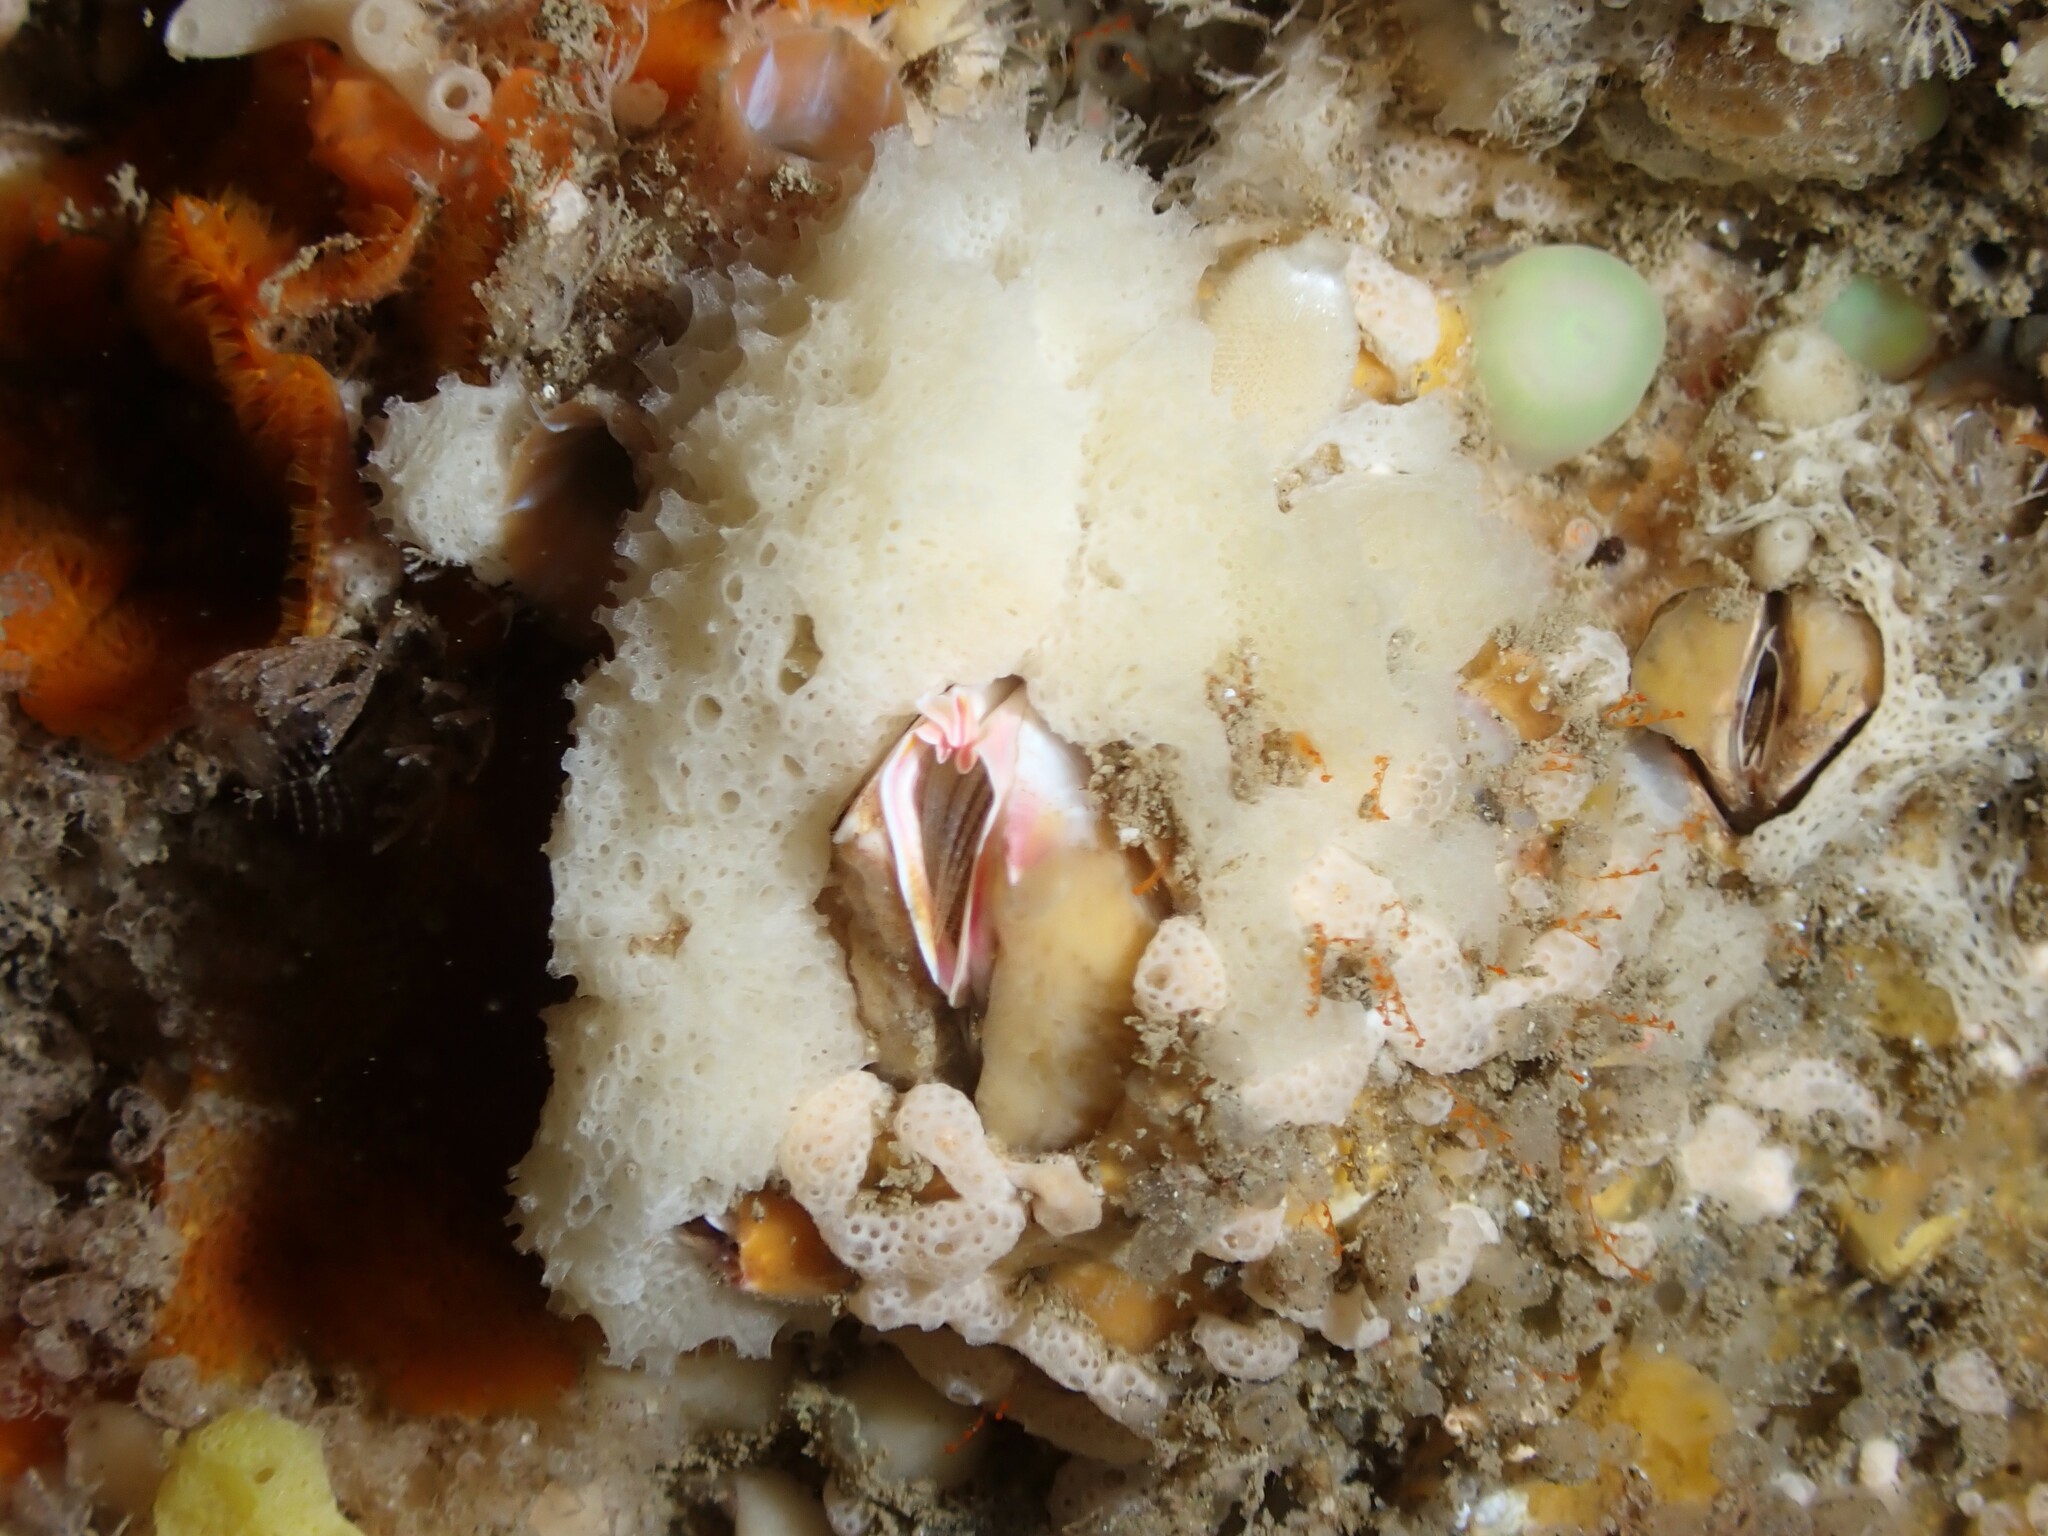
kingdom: Animalia
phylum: Arthropoda
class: Maxillopoda
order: Sessilia
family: Balanidae
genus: Notobalanus
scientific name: Notobalanus vestitus
